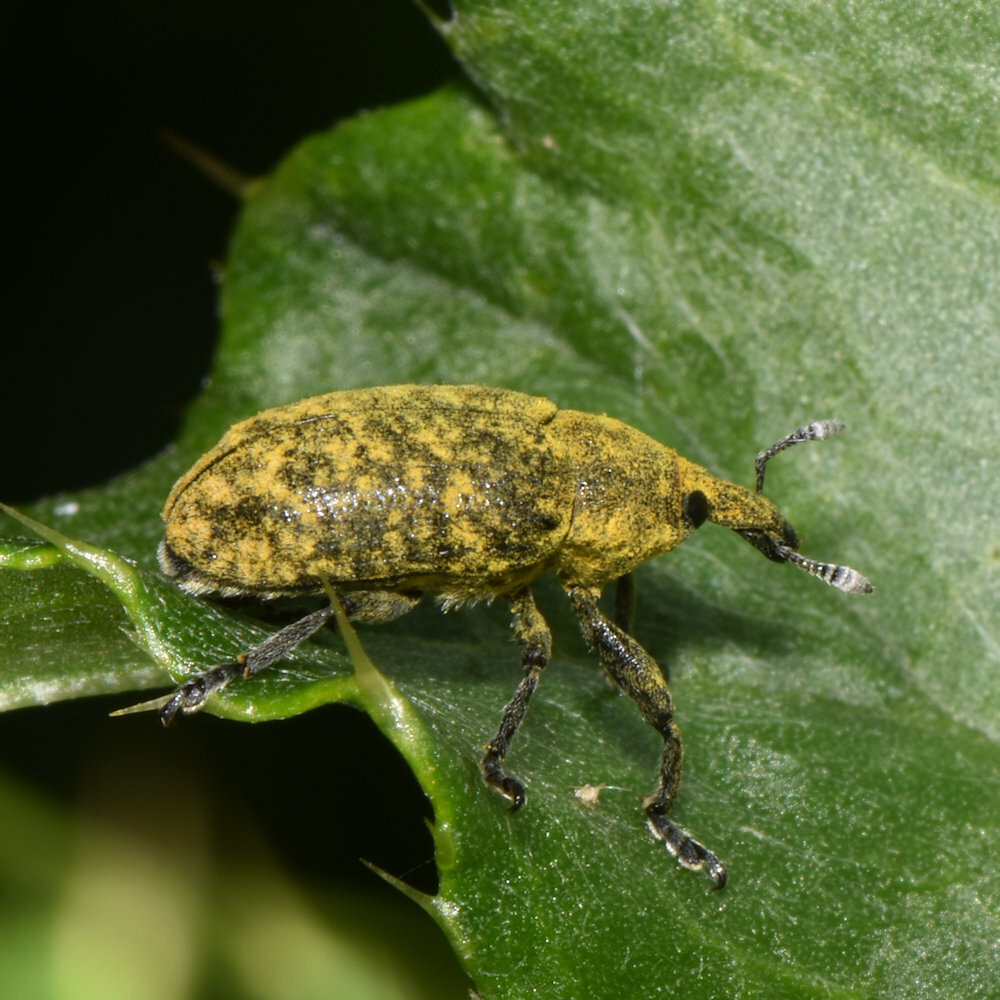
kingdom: Animalia
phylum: Arthropoda
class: Insecta
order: Coleoptera
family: Curculionidae
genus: Larinus
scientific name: Larinus carlinae
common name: Weevil
